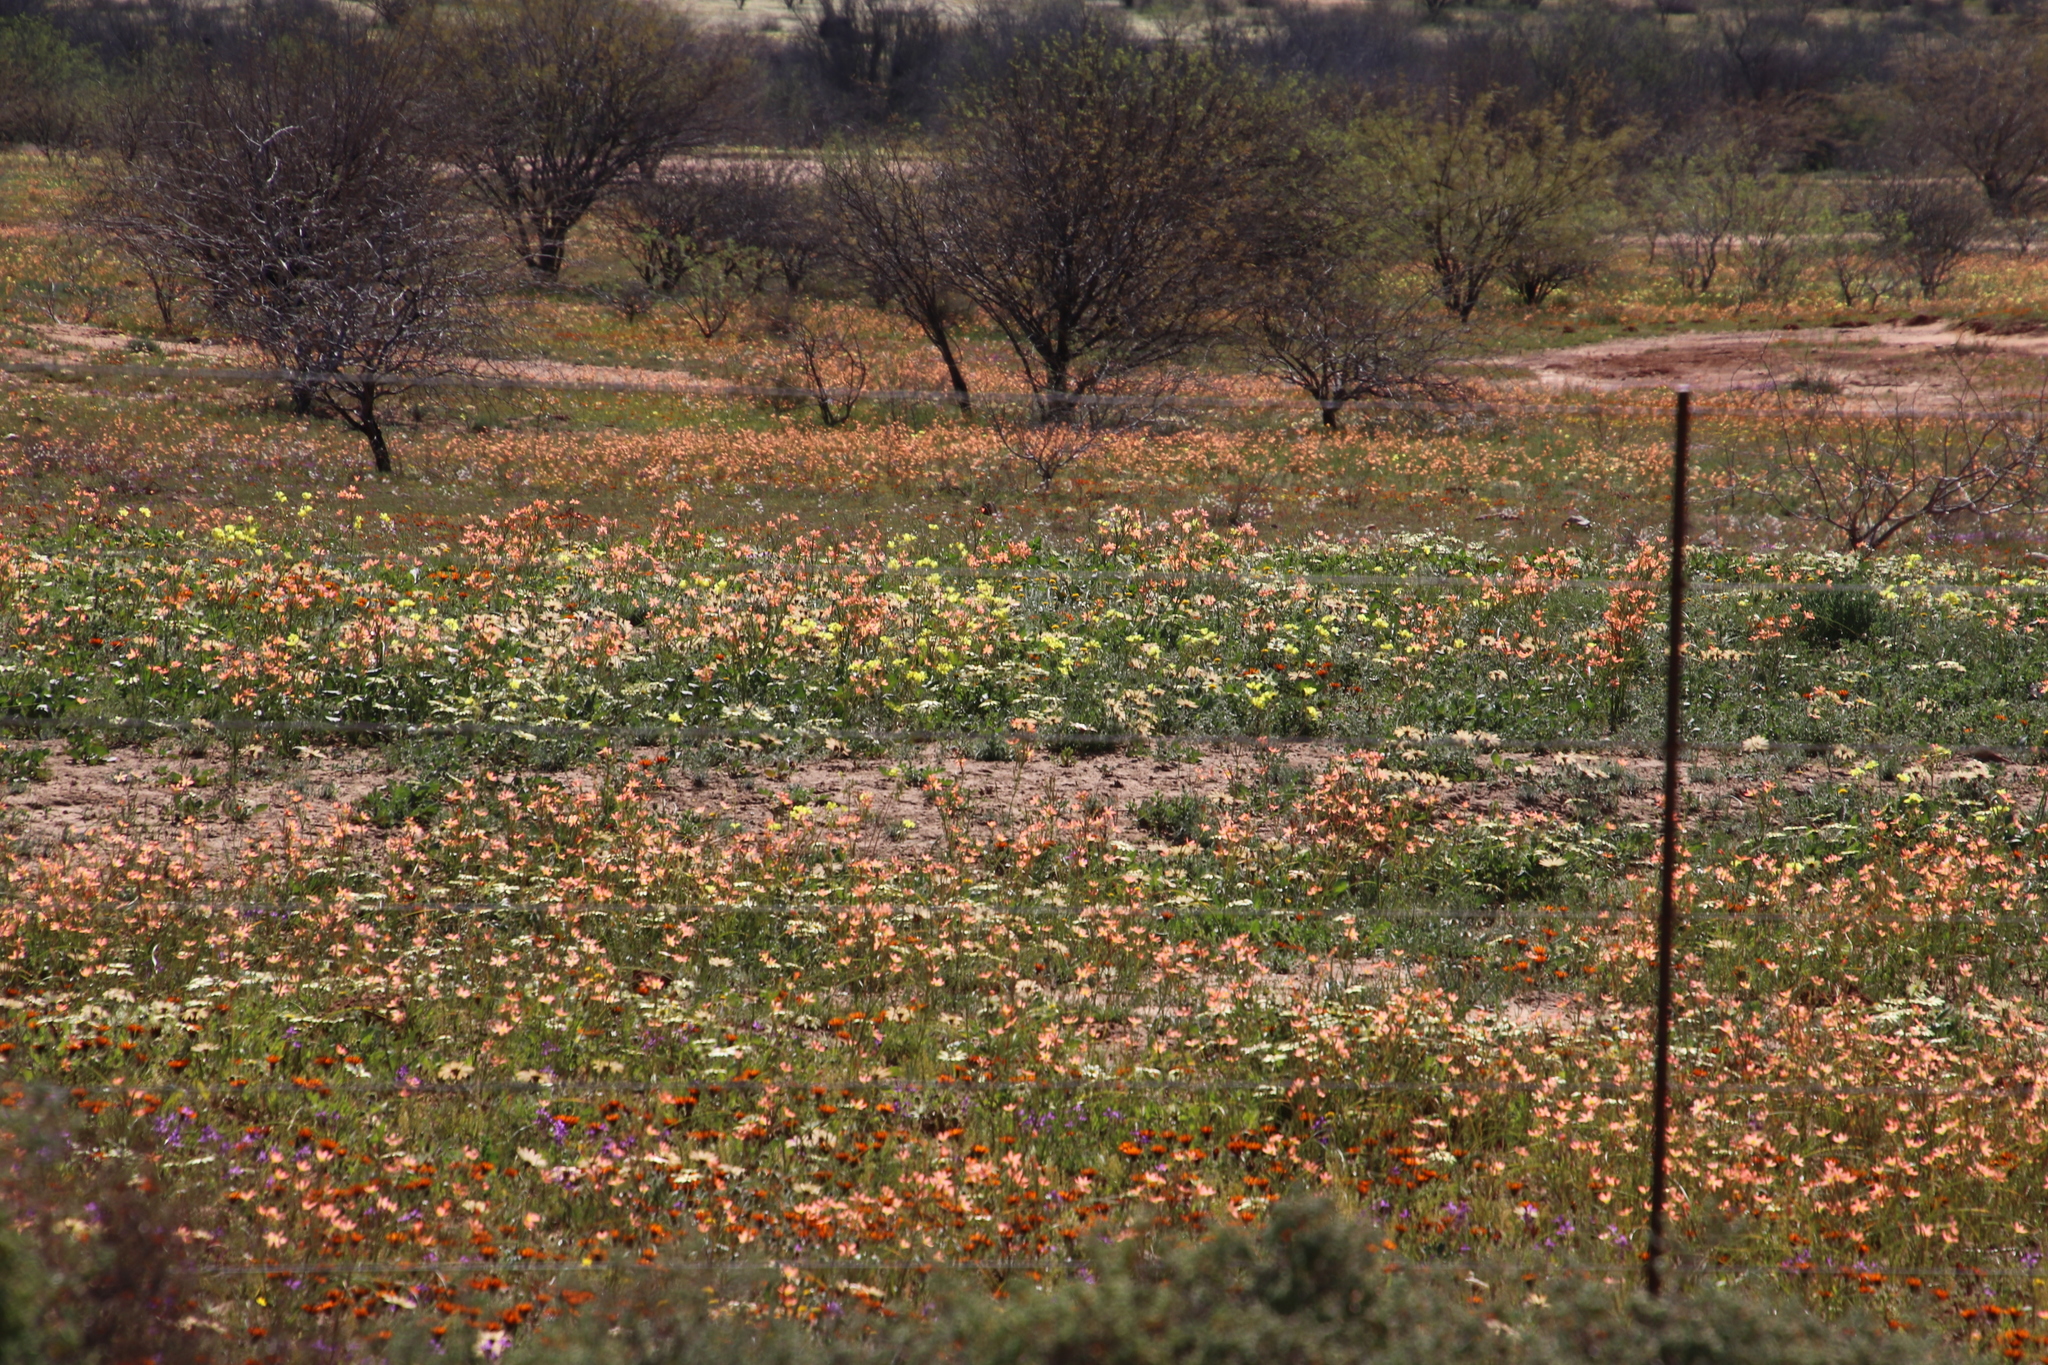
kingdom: Plantae
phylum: Tracheophyta
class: Magnoliopsida
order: Fabales
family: Fabaceae
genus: Prosopis
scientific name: Prosopis pubescens
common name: Screw-bean
